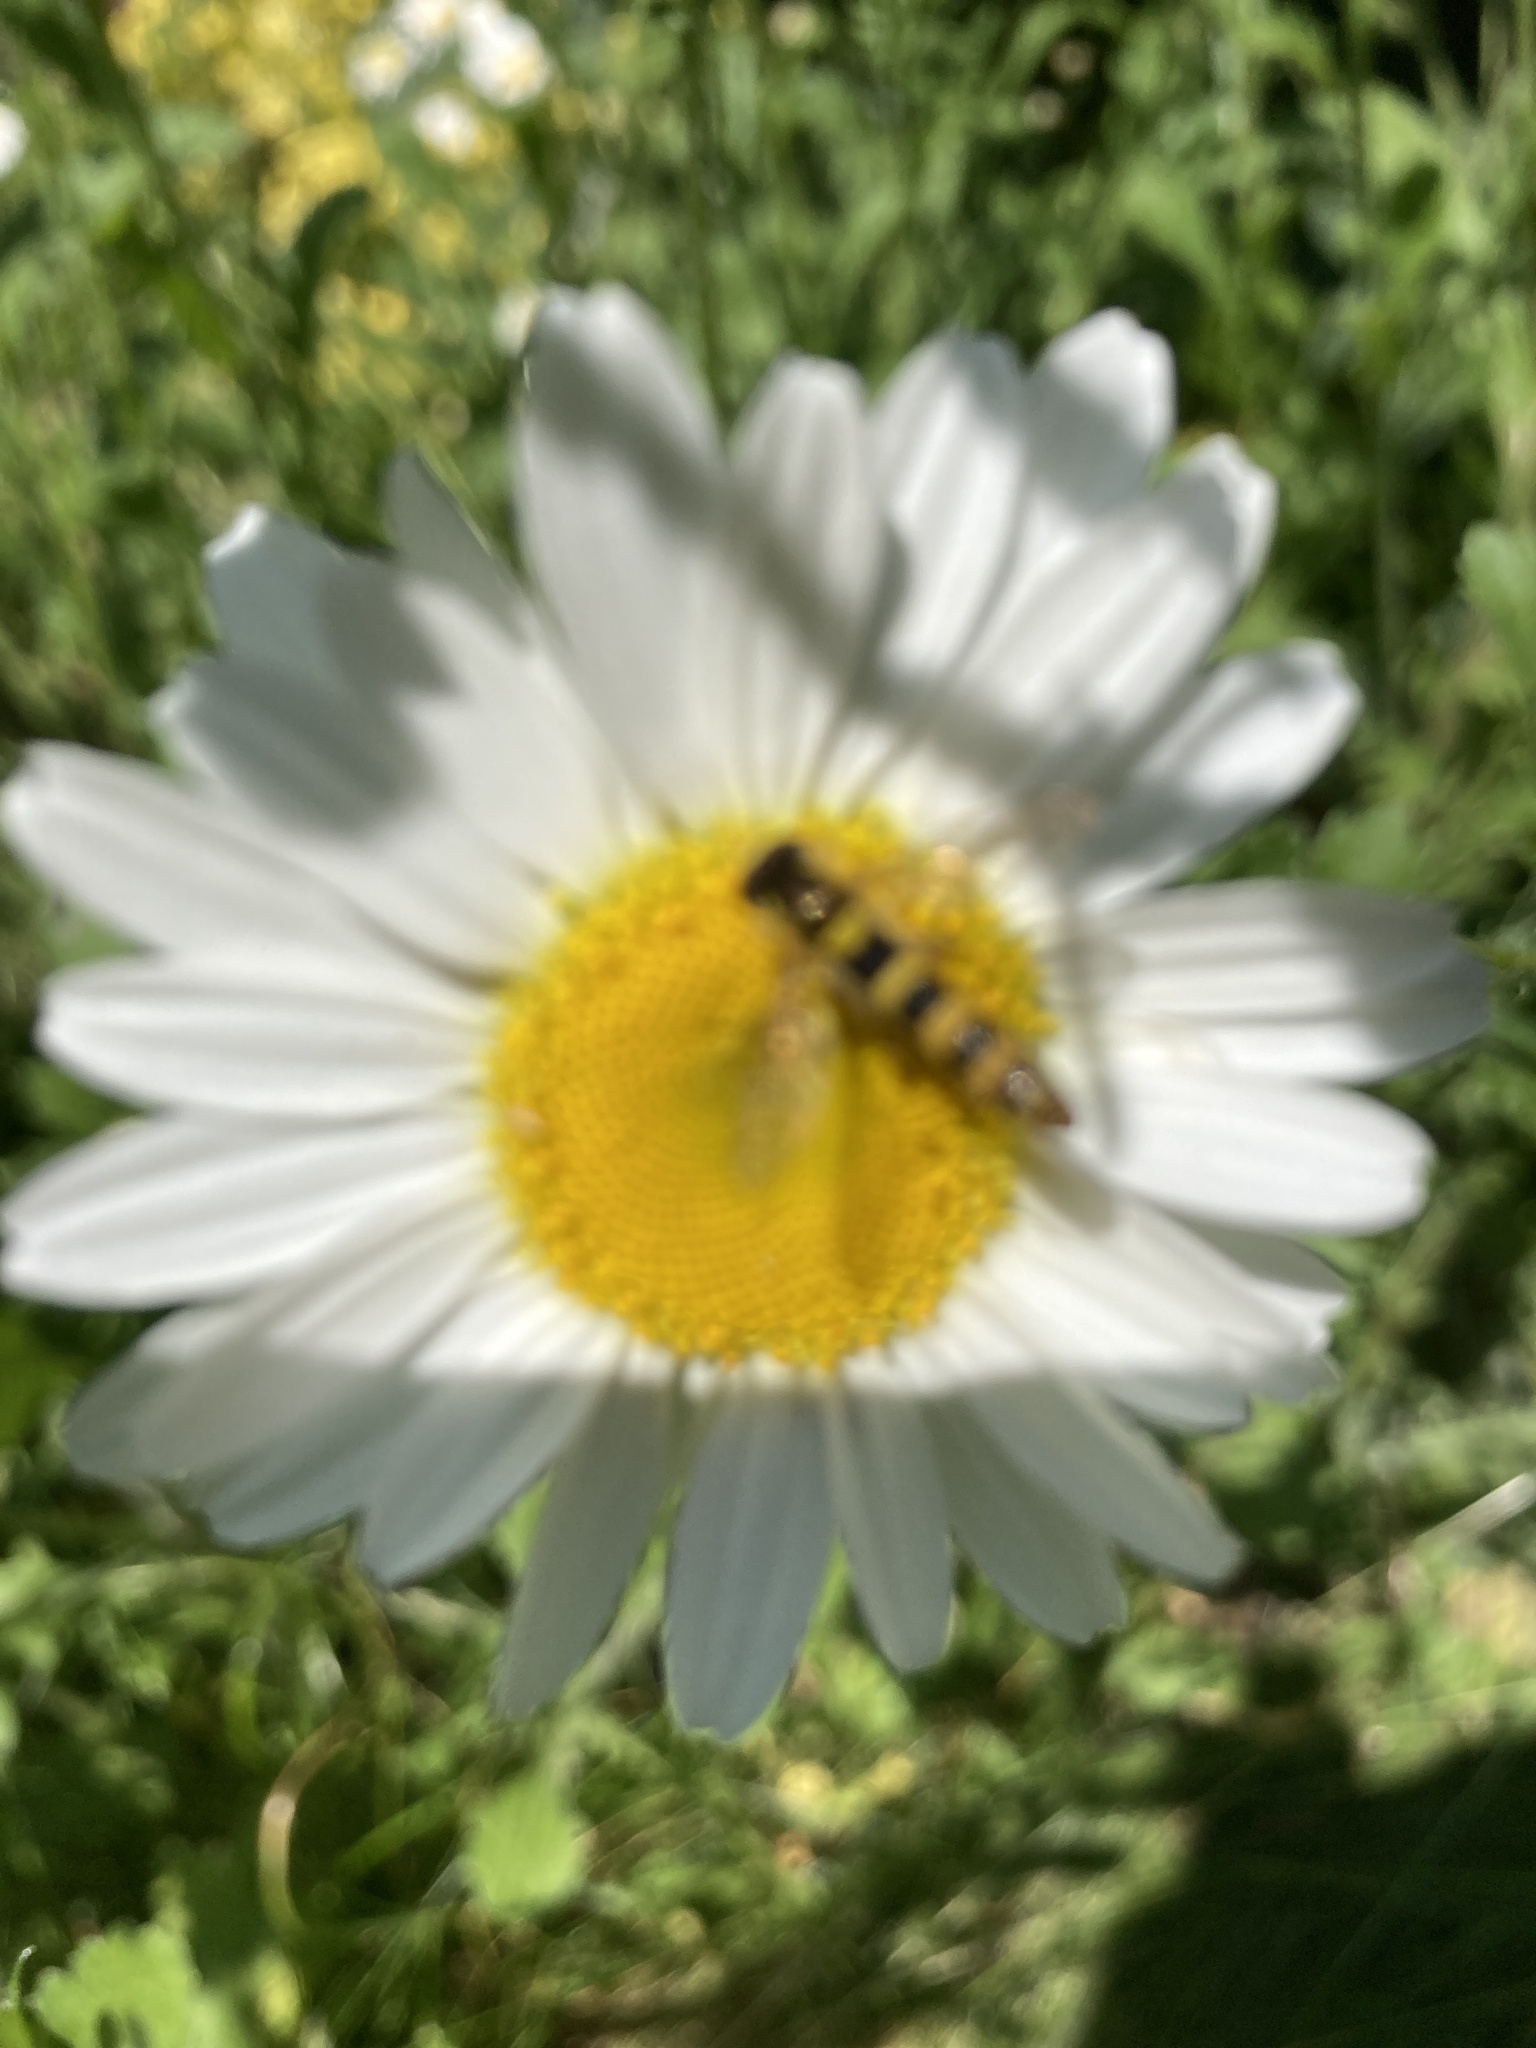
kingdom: Animalia
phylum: Arthropoda
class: Insecta
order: Diptera
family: Syrphidae
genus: Sphaerophoria
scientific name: Sphaerophoria
